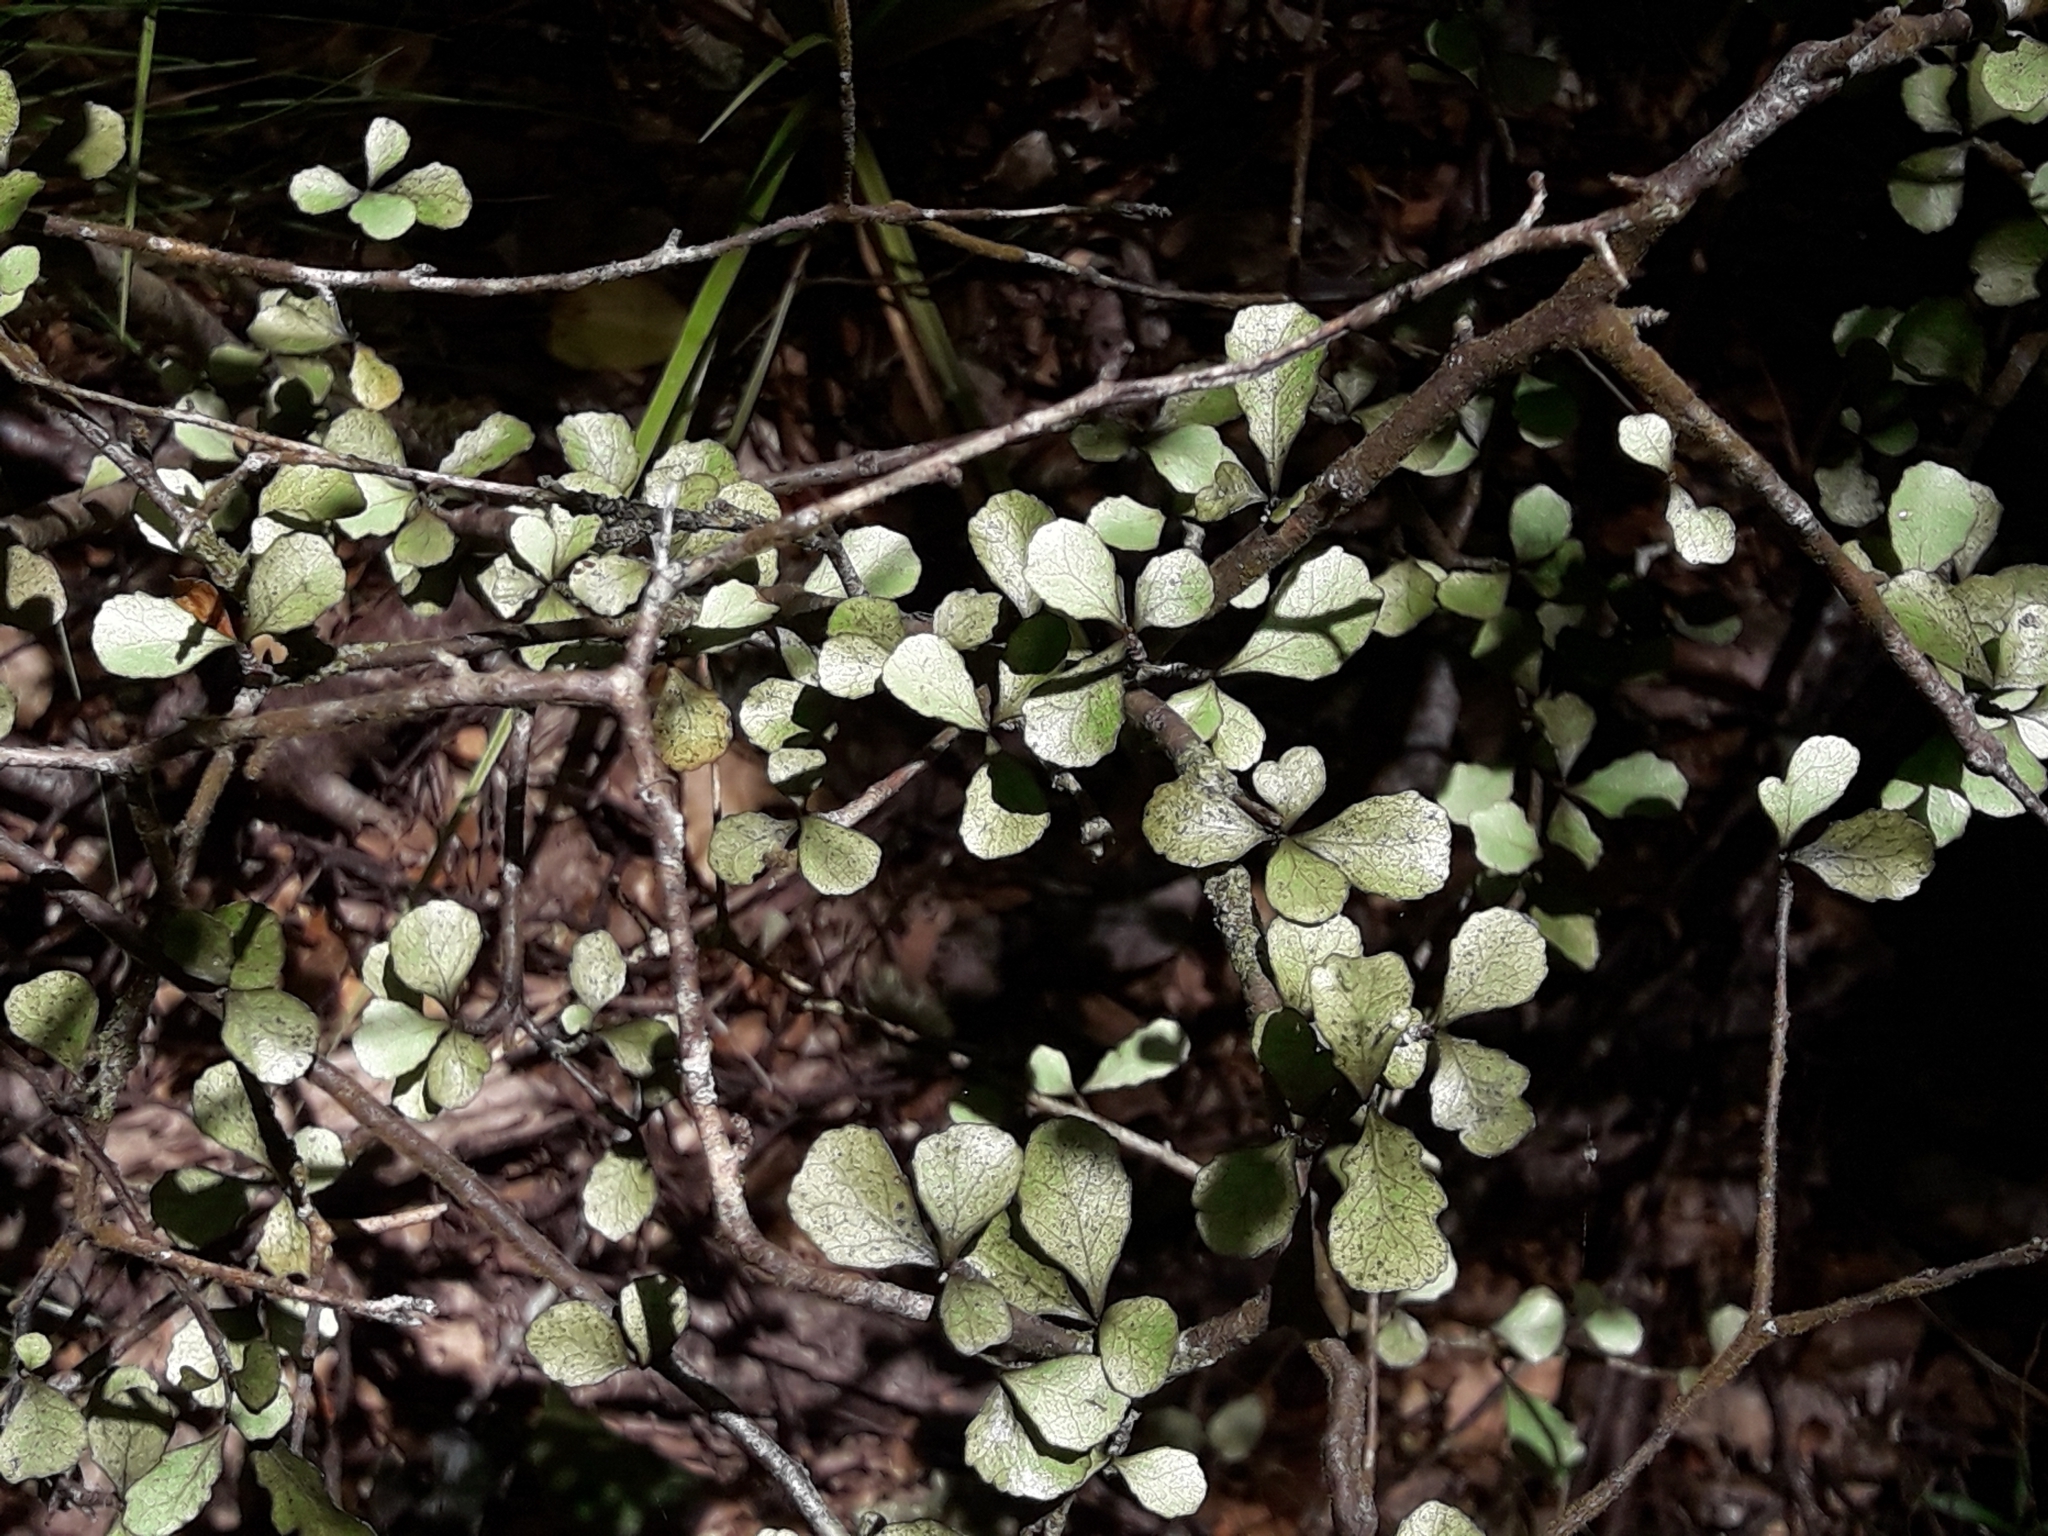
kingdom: Plantae
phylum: Tracheophyta
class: Magnoliopsida
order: Oxalidales
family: Elaeocarpaceae
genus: Elaeocarpus
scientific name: Elaeocarpus hookerianus
